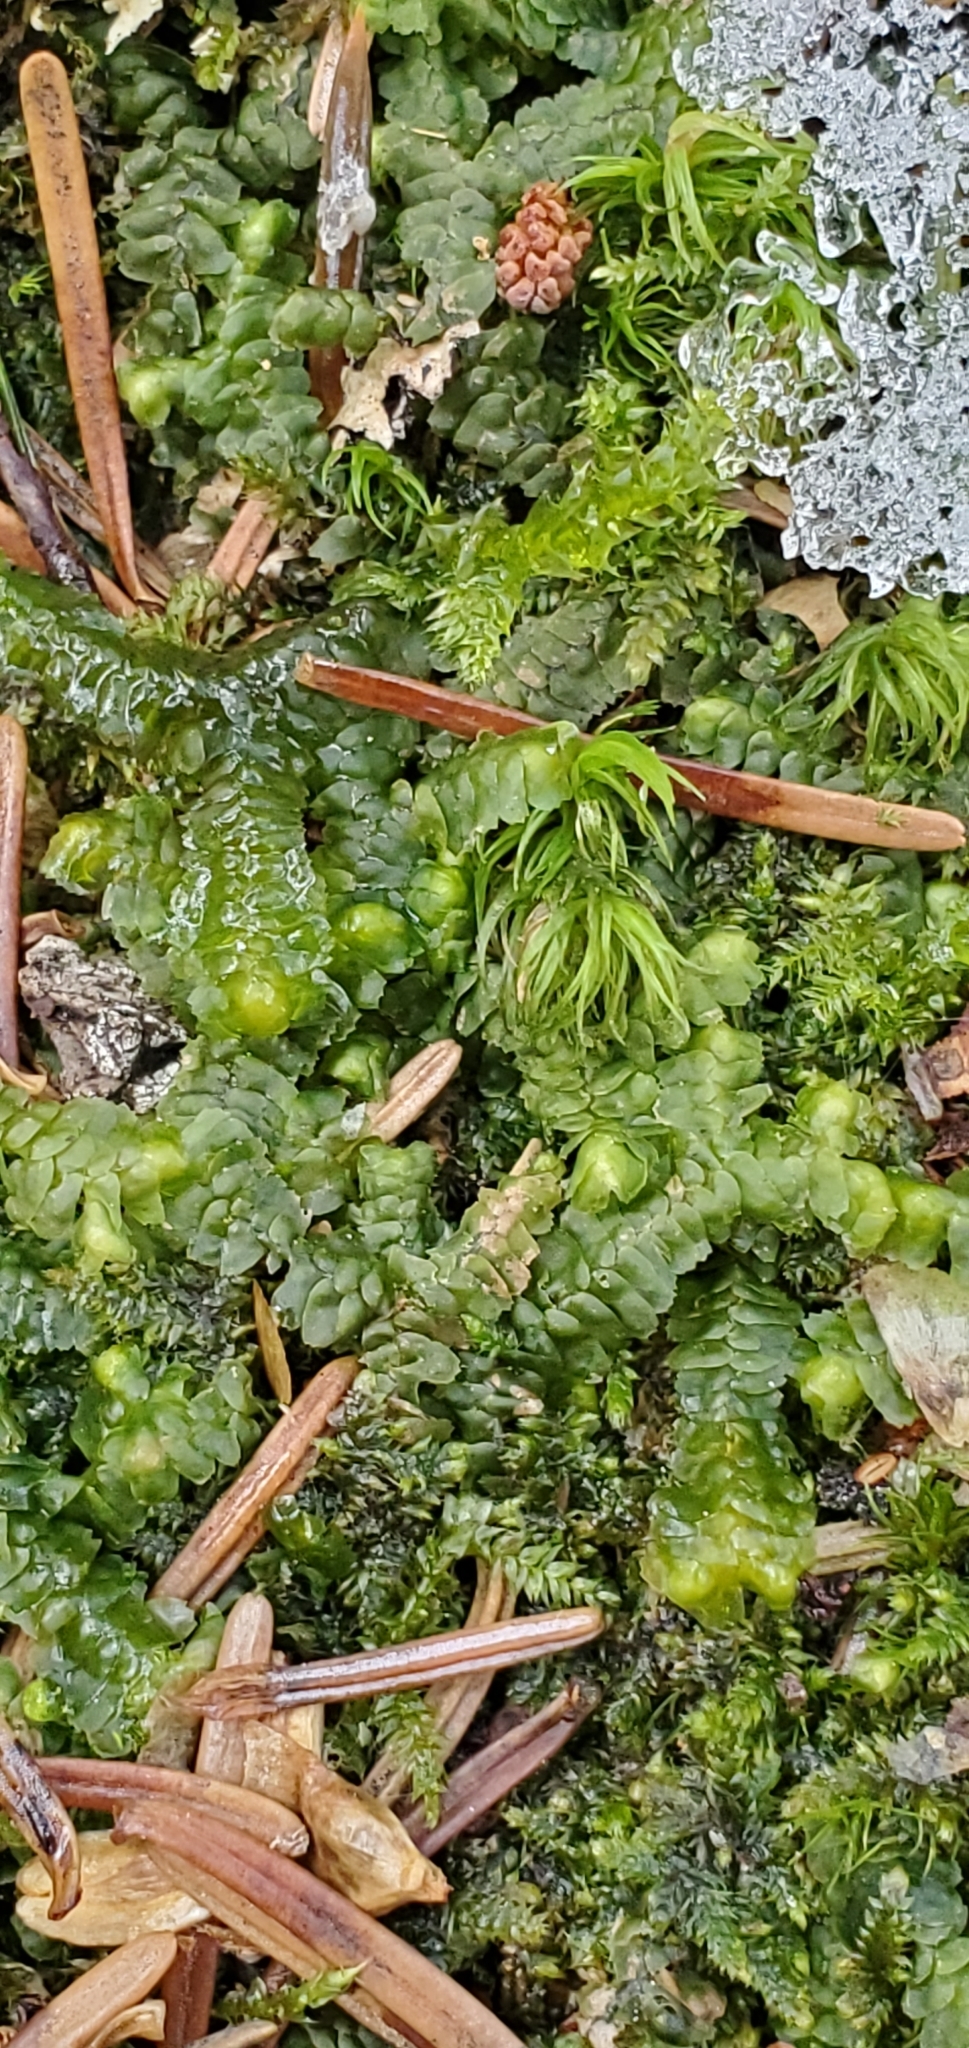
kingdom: Plantae
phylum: Marchantiophyta
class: Jungermanniopsida
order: Jungermanniales
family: Lepidoziaceae
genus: Bazzania
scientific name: Bazzania trilobata
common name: Three-lobed whipwort
